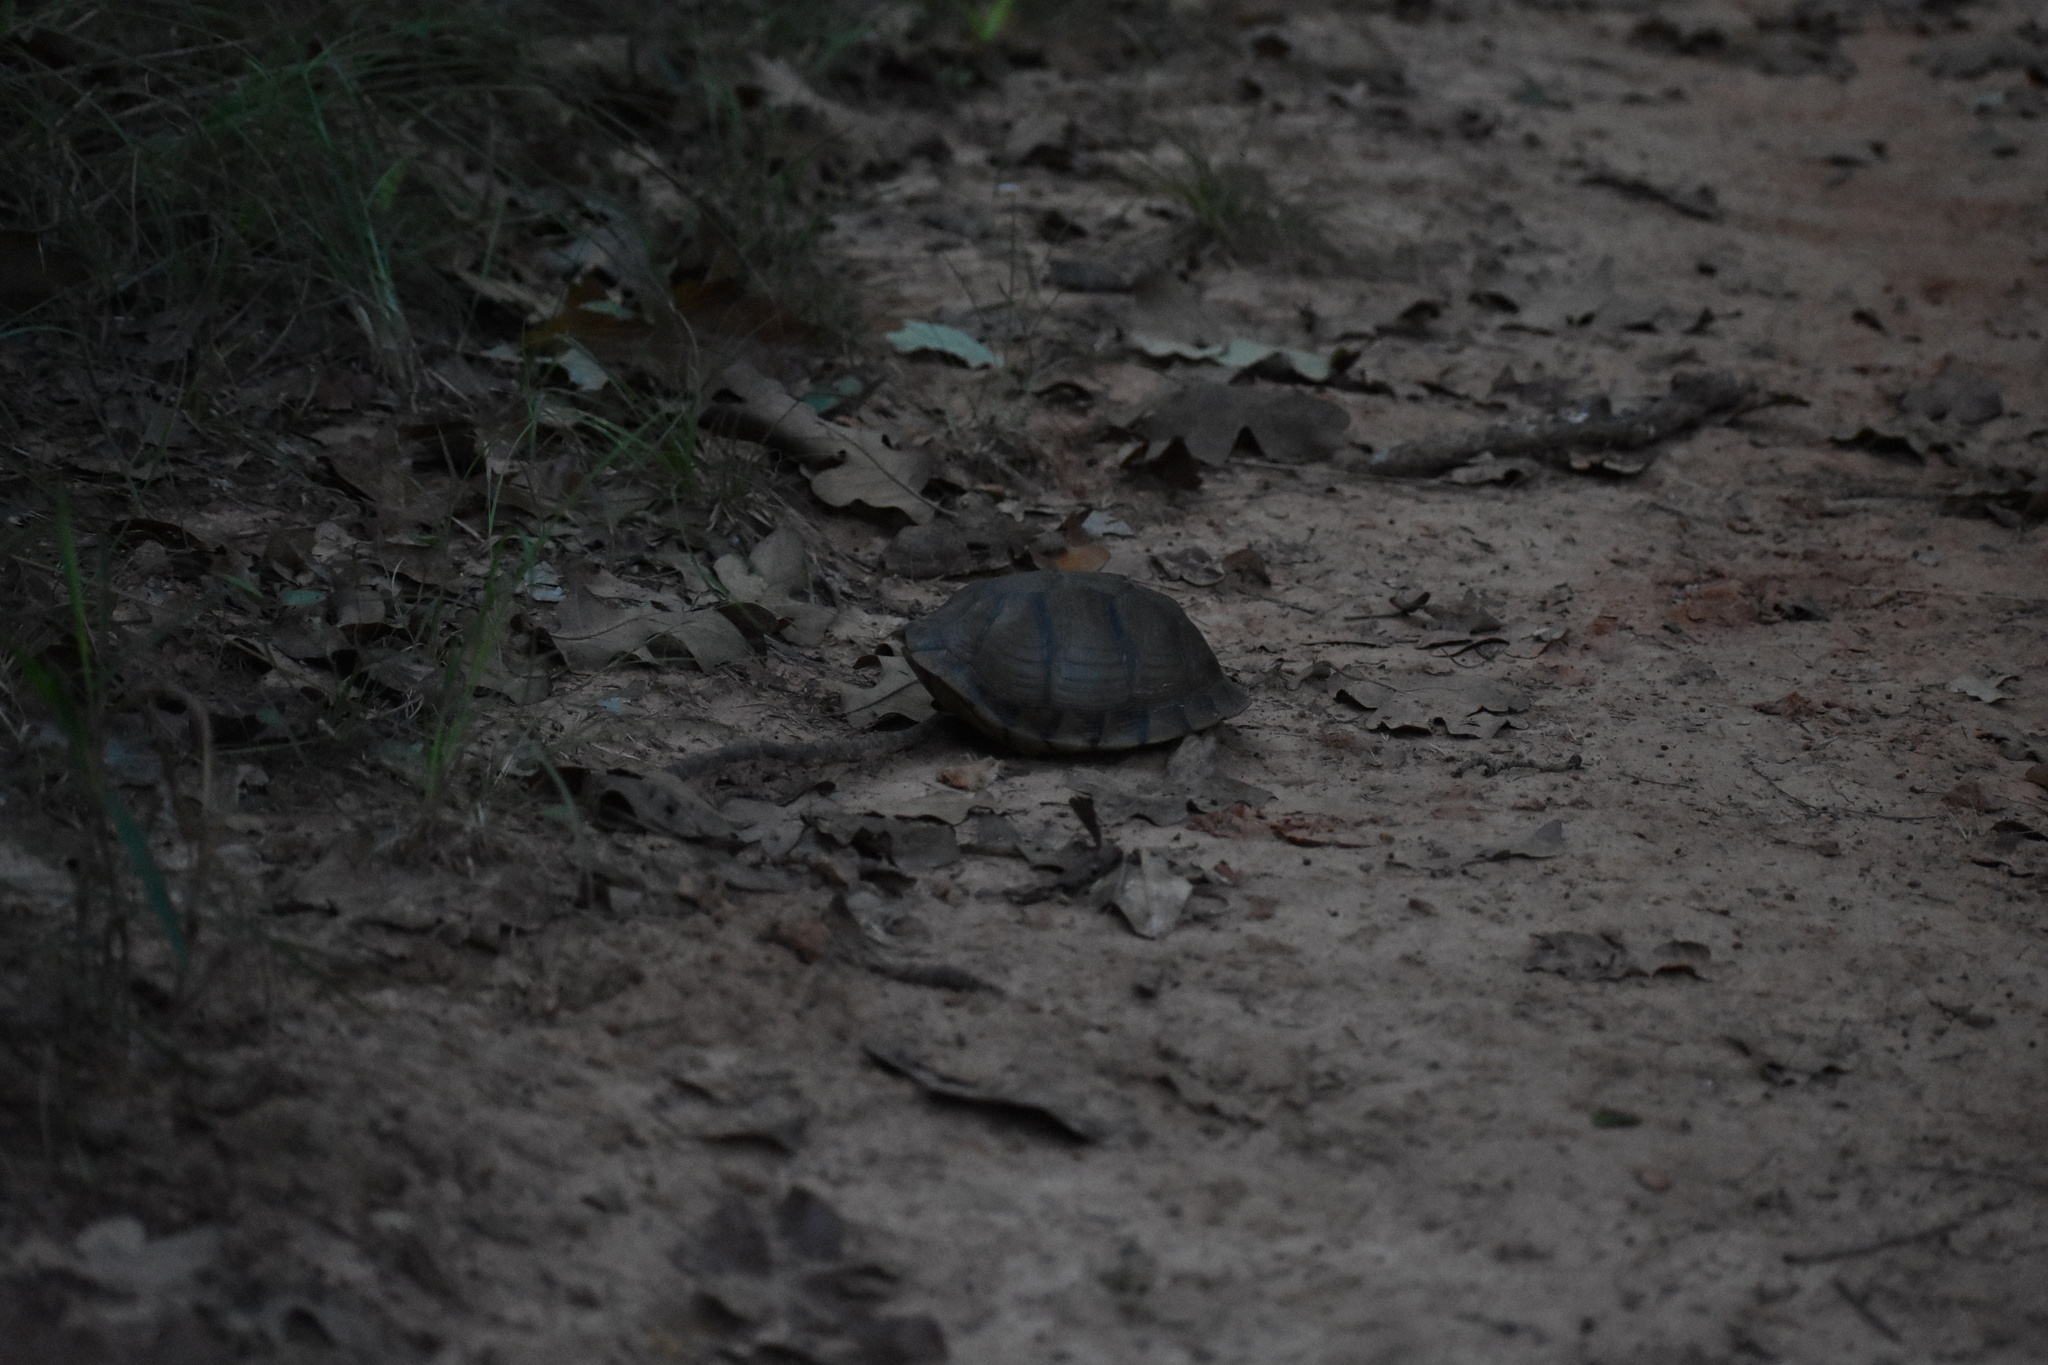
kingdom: Animalia
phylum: Chordata
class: Testudines
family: Emydidae
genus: Terrapene
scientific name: Terrapene carolina
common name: Common box turtle
